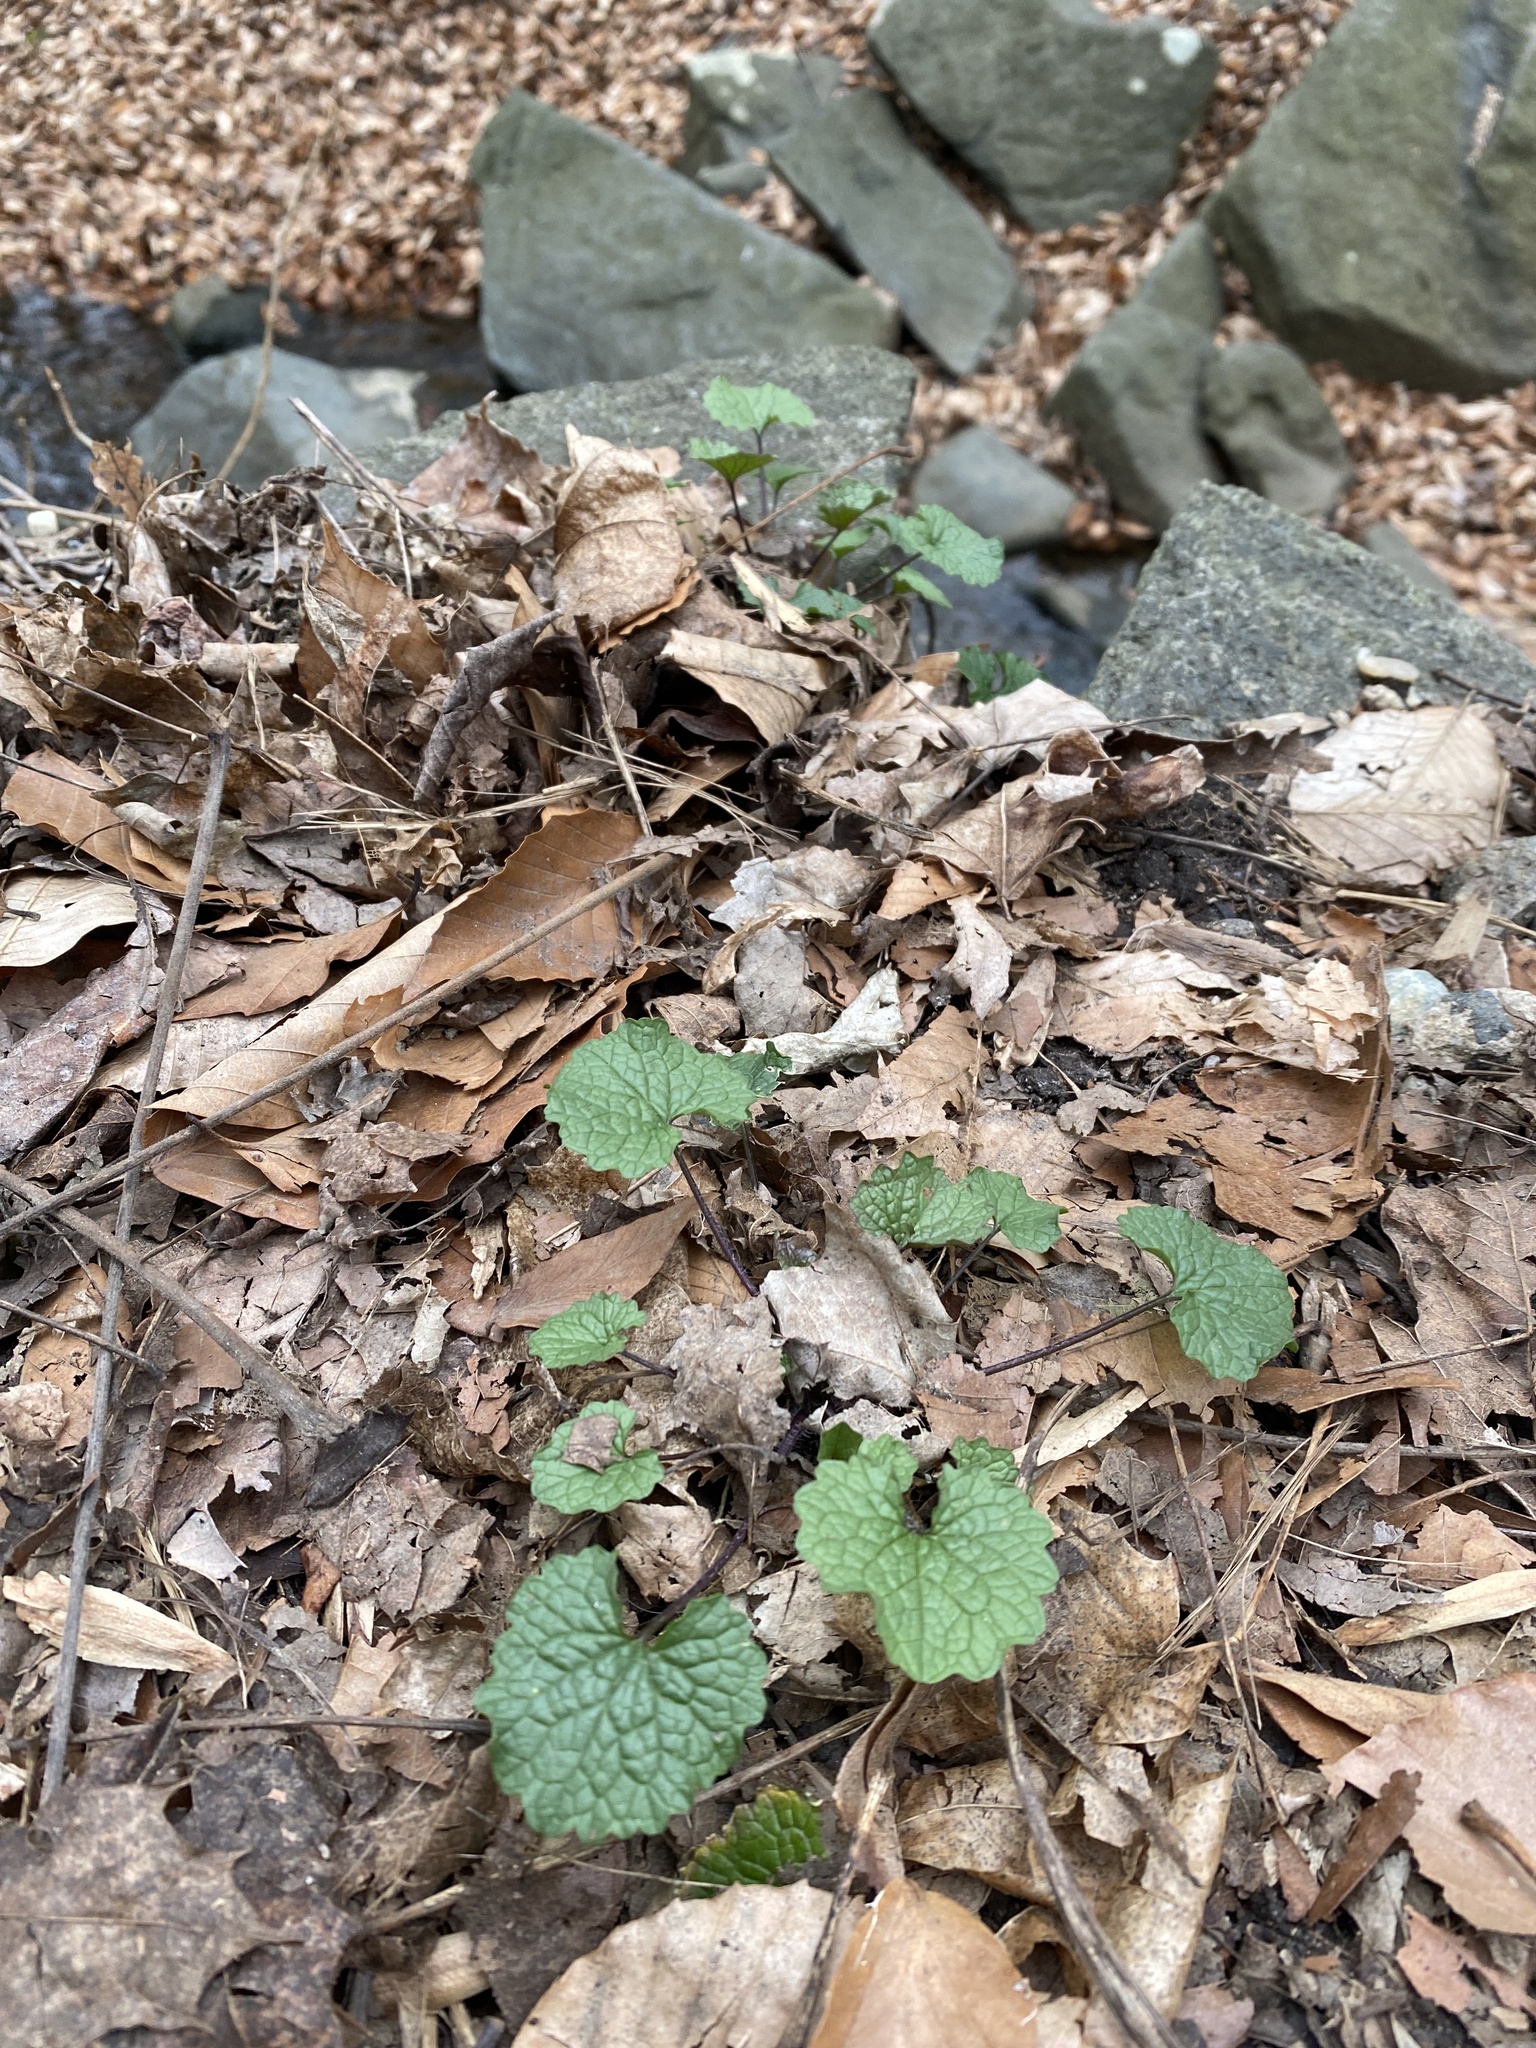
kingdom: Plantae
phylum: Tracheophyta
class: Magnoliopsida
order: Brassicales
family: Brassicaceae
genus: Alliaria
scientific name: Alliaria petiolata
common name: Garlic mustard
